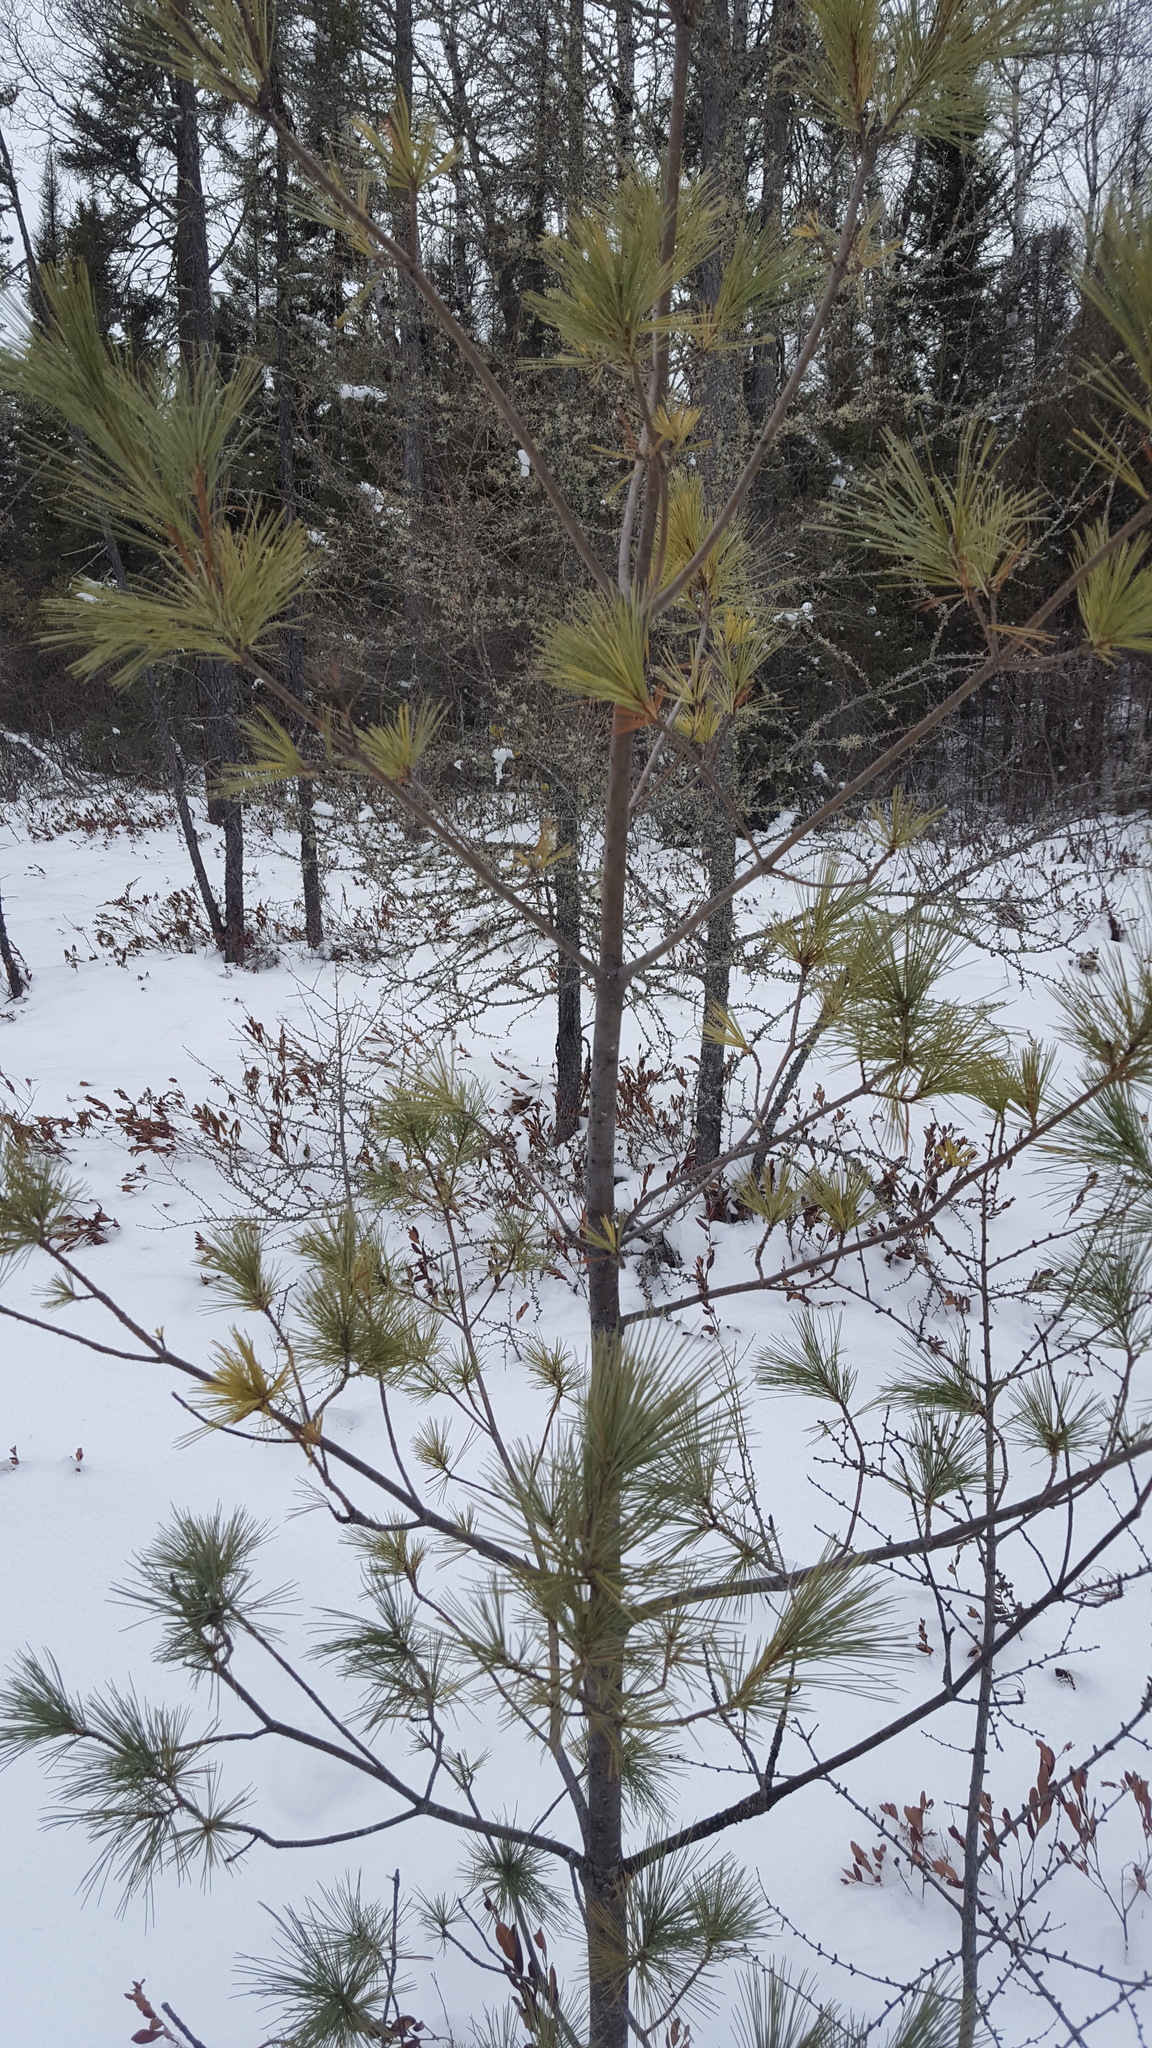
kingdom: Plantae
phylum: Tracheophyta
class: Pinopsida
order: Pinales
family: Pinaceae
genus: Pinus
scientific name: Pinus strobus
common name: Weymouth pine
